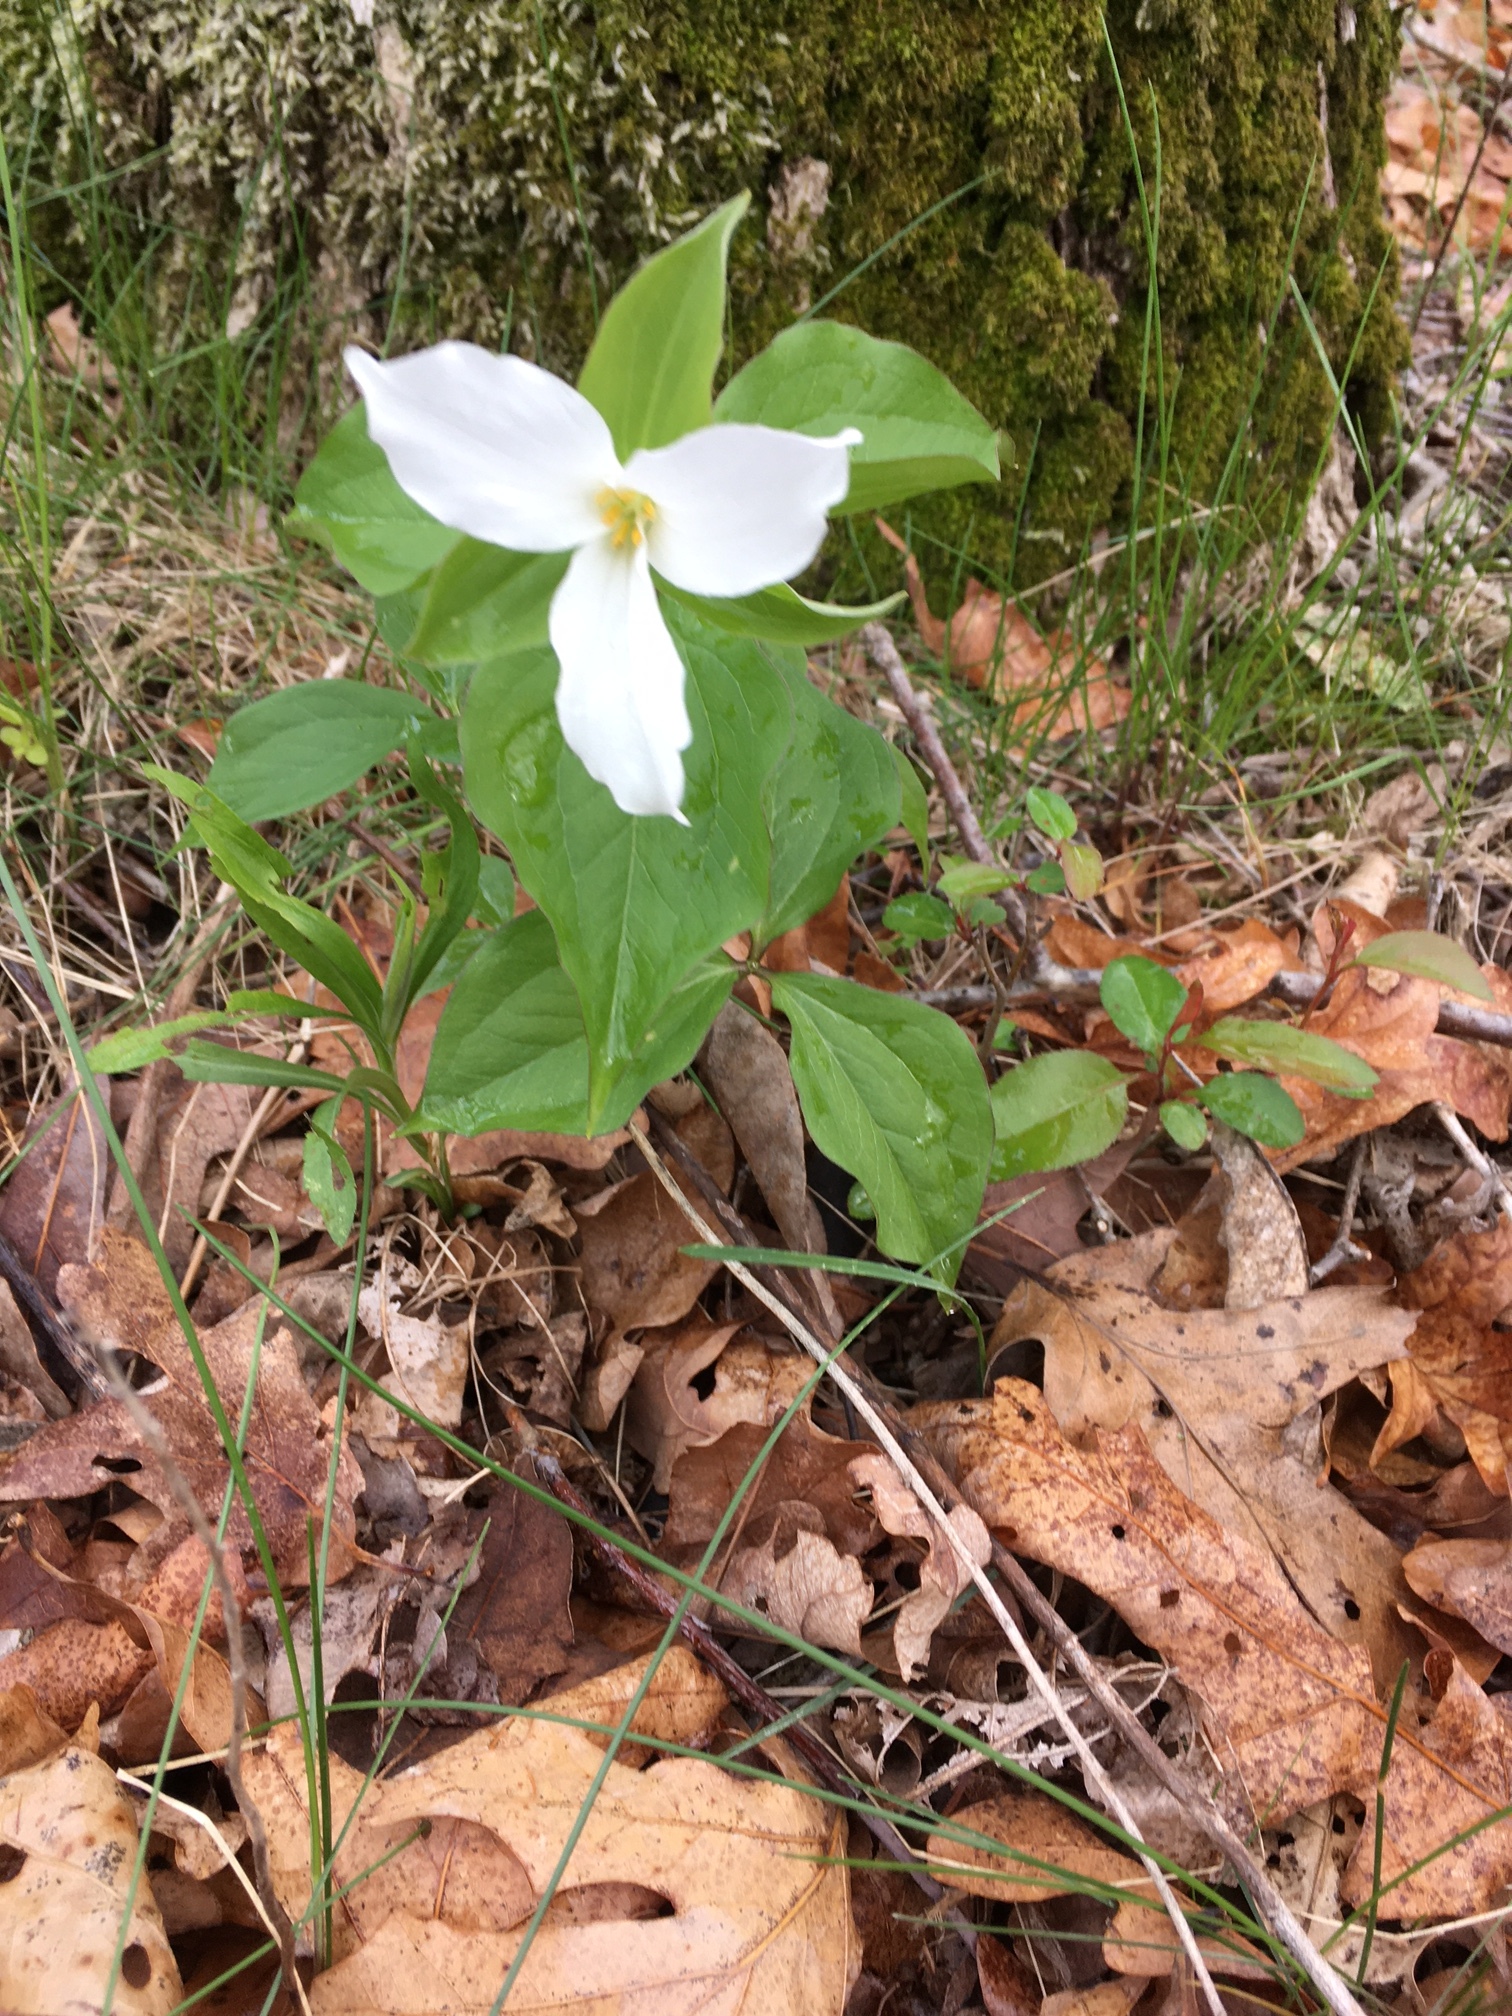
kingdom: Plantae
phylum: Tracheophyta
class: Liliopsida
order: Liliales
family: Melanthiaceae
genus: Trillium
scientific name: Trillium grandiflorum
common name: Great white trillium
